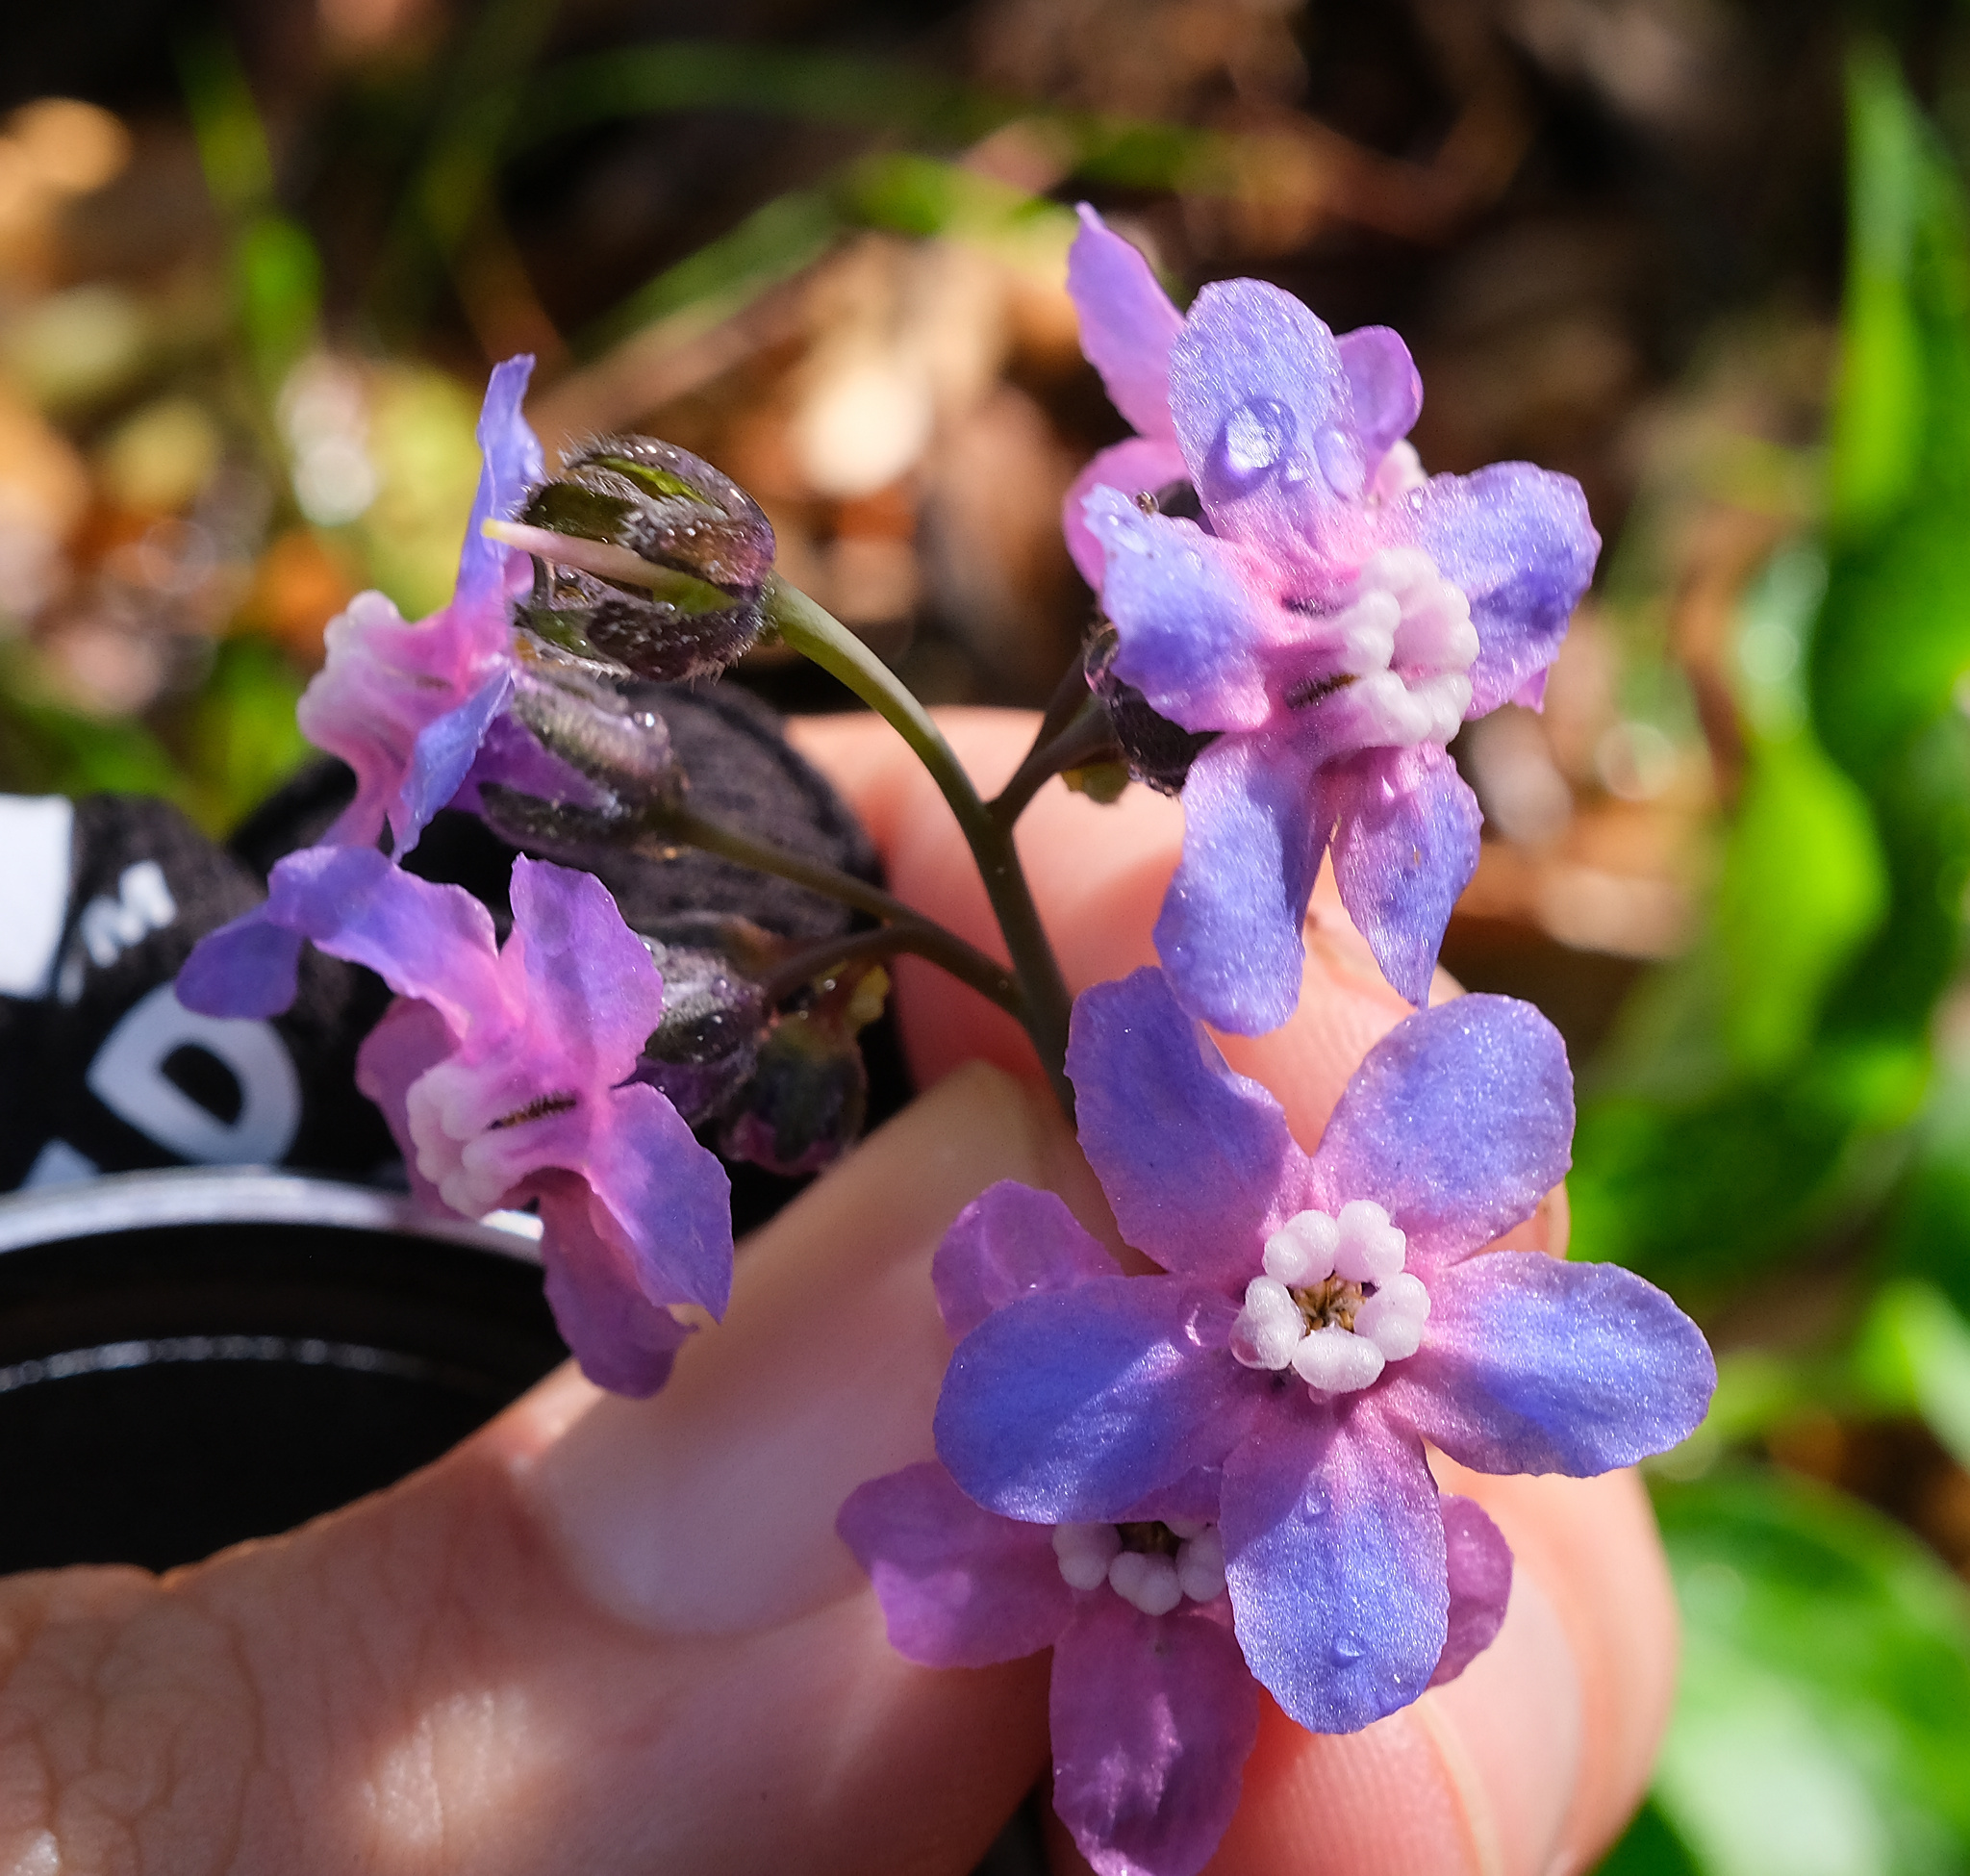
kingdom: Plantae
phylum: Tracheophyta
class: Magnoliopsida
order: Boraginales
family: Boraginaceae
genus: Adelinia
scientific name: Adelinia grande
